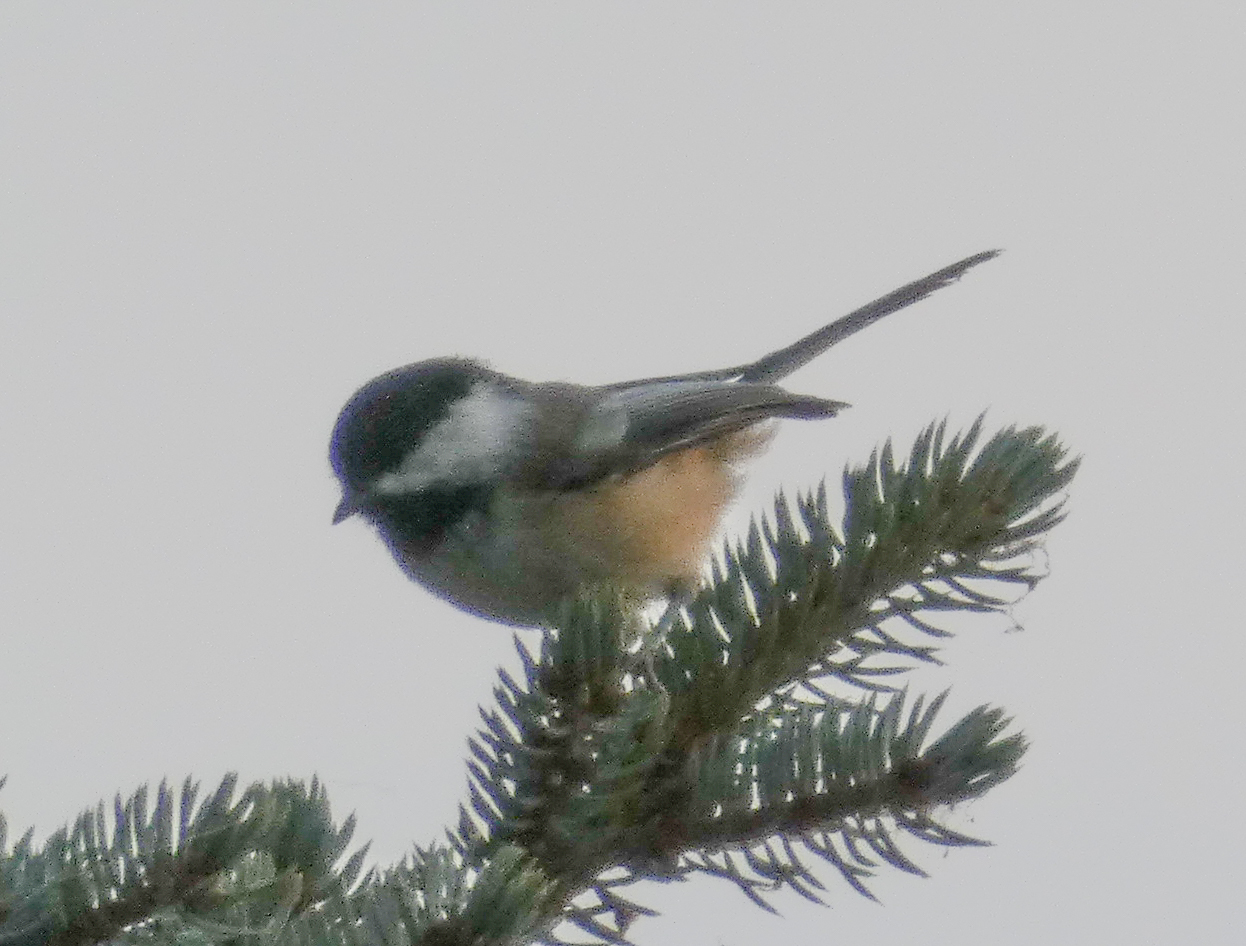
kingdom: Animalia
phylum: Chordata
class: Aves
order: Passeriformes
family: Paridae
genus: Poecile
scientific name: Poecile atricapillus
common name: Black-capped chickadee
